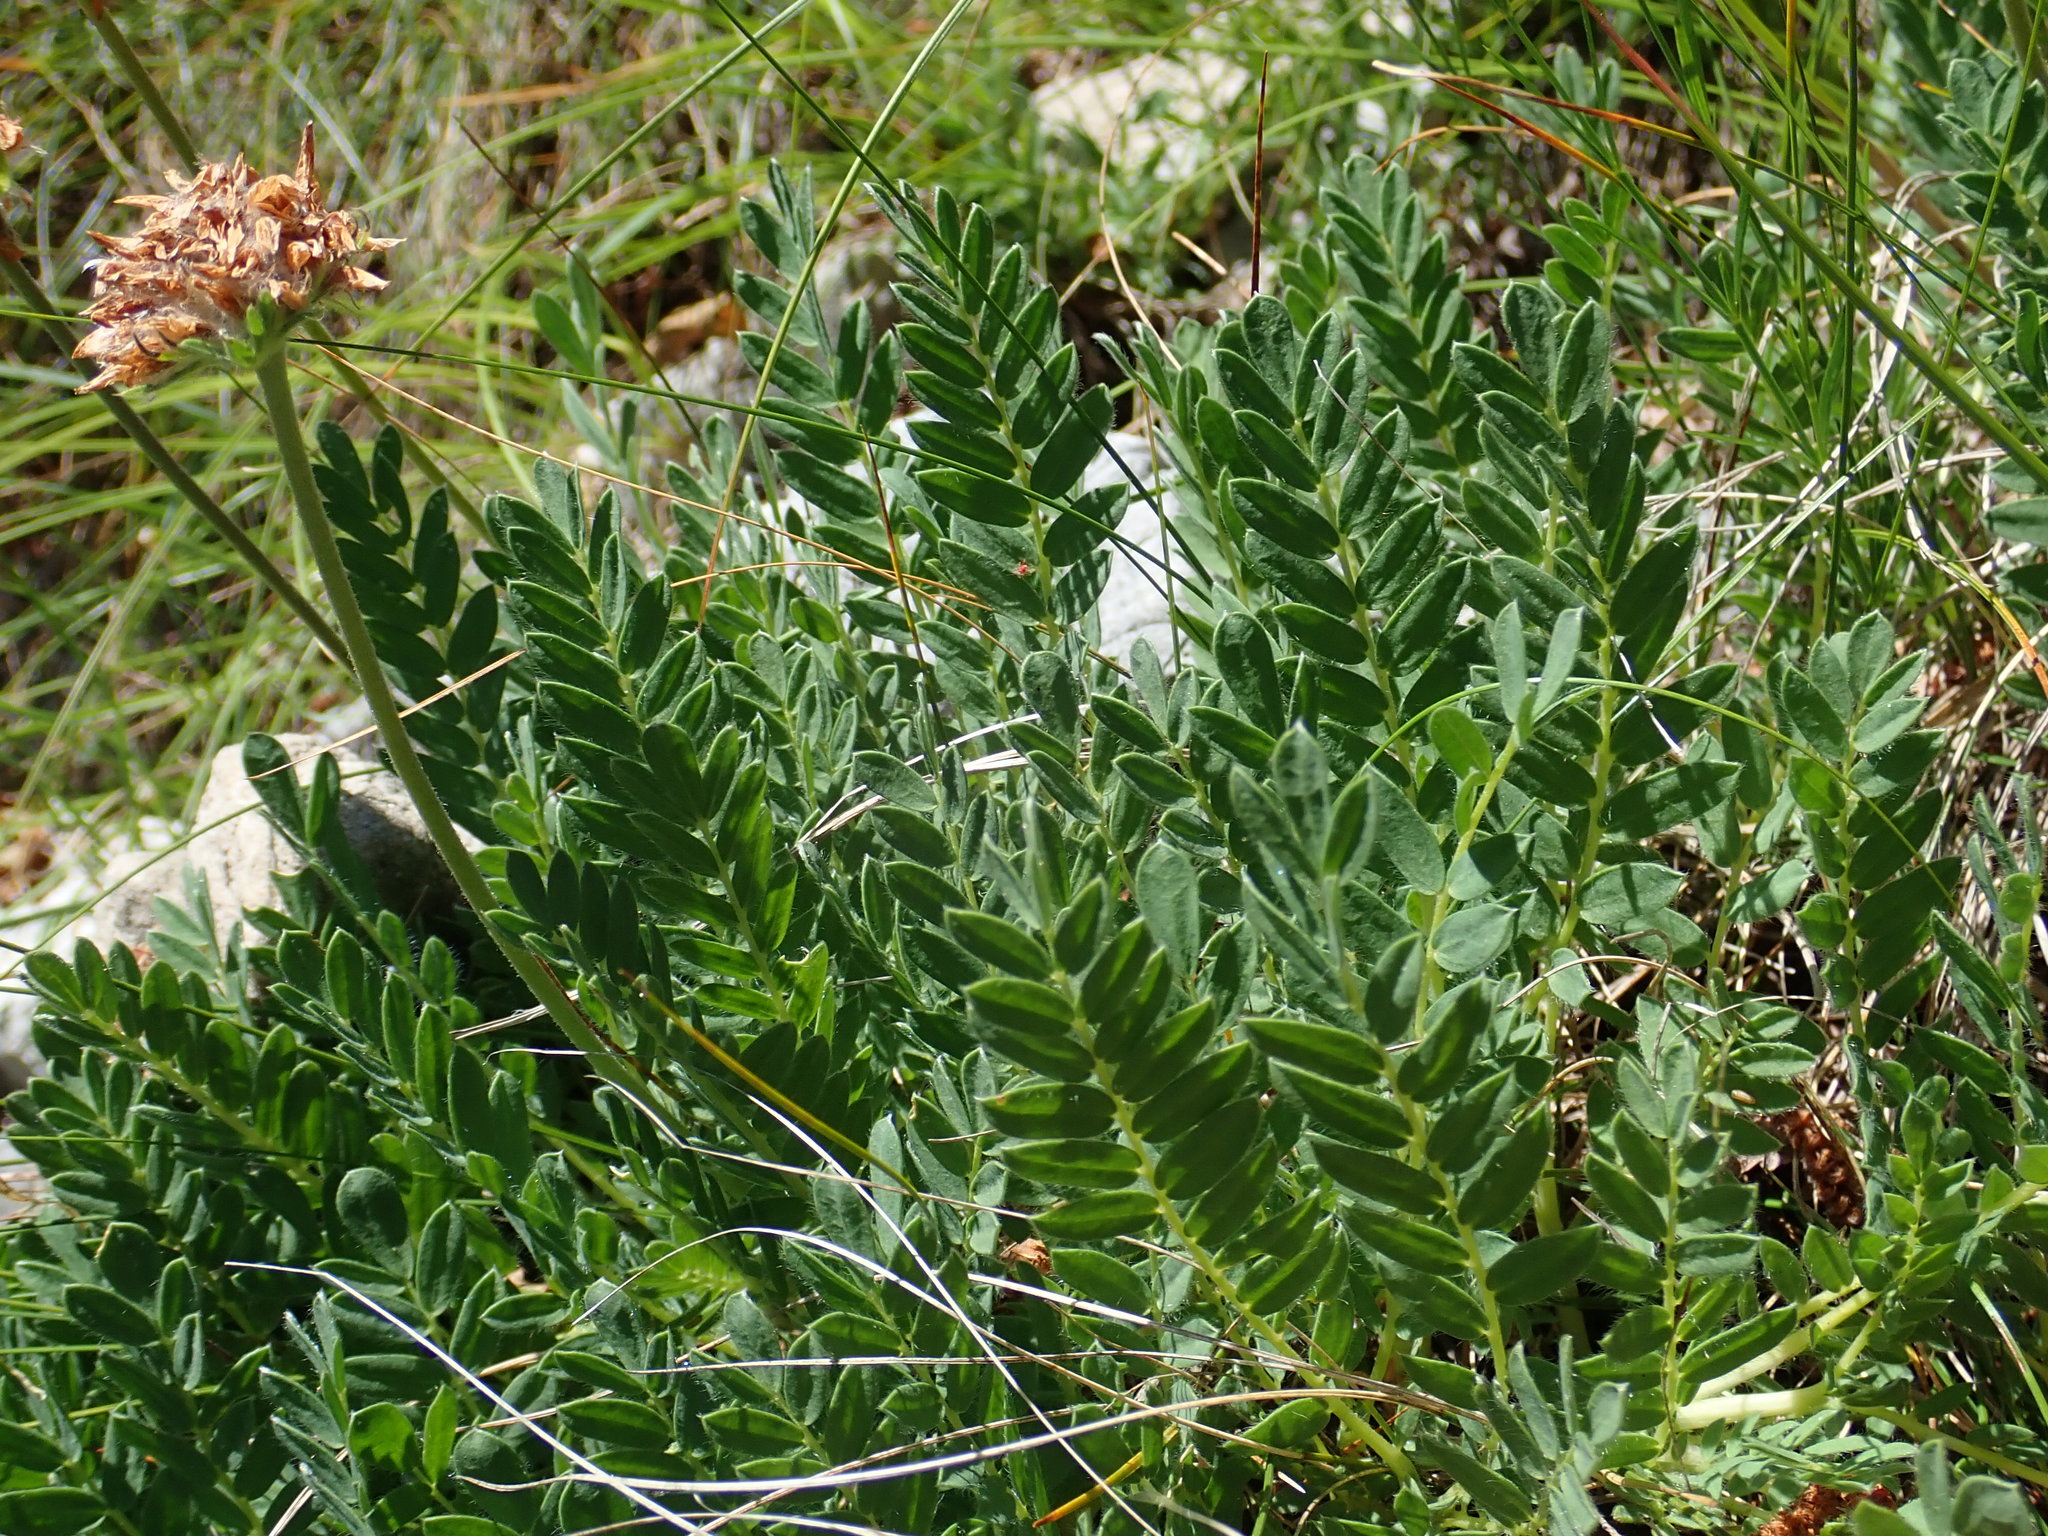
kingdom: Plantae
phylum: Tracheophyta
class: Magnoliopsida
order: Fabales
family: Fabaceae
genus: Anthyllis
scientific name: Anthyllis montana
